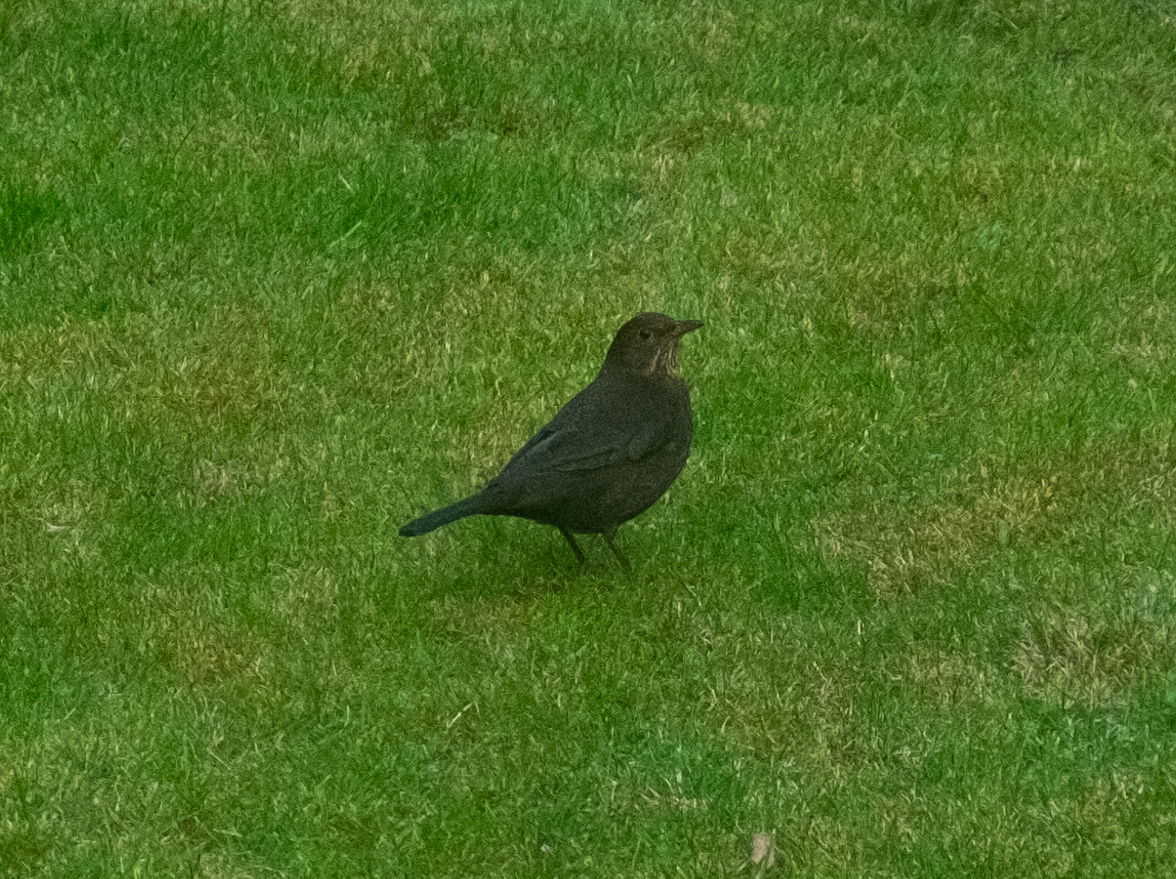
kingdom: Animalia
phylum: Chordata
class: Aves
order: Passeriformes
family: Turdidae
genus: Turdus
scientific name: Turdus merula
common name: Common blackbird
